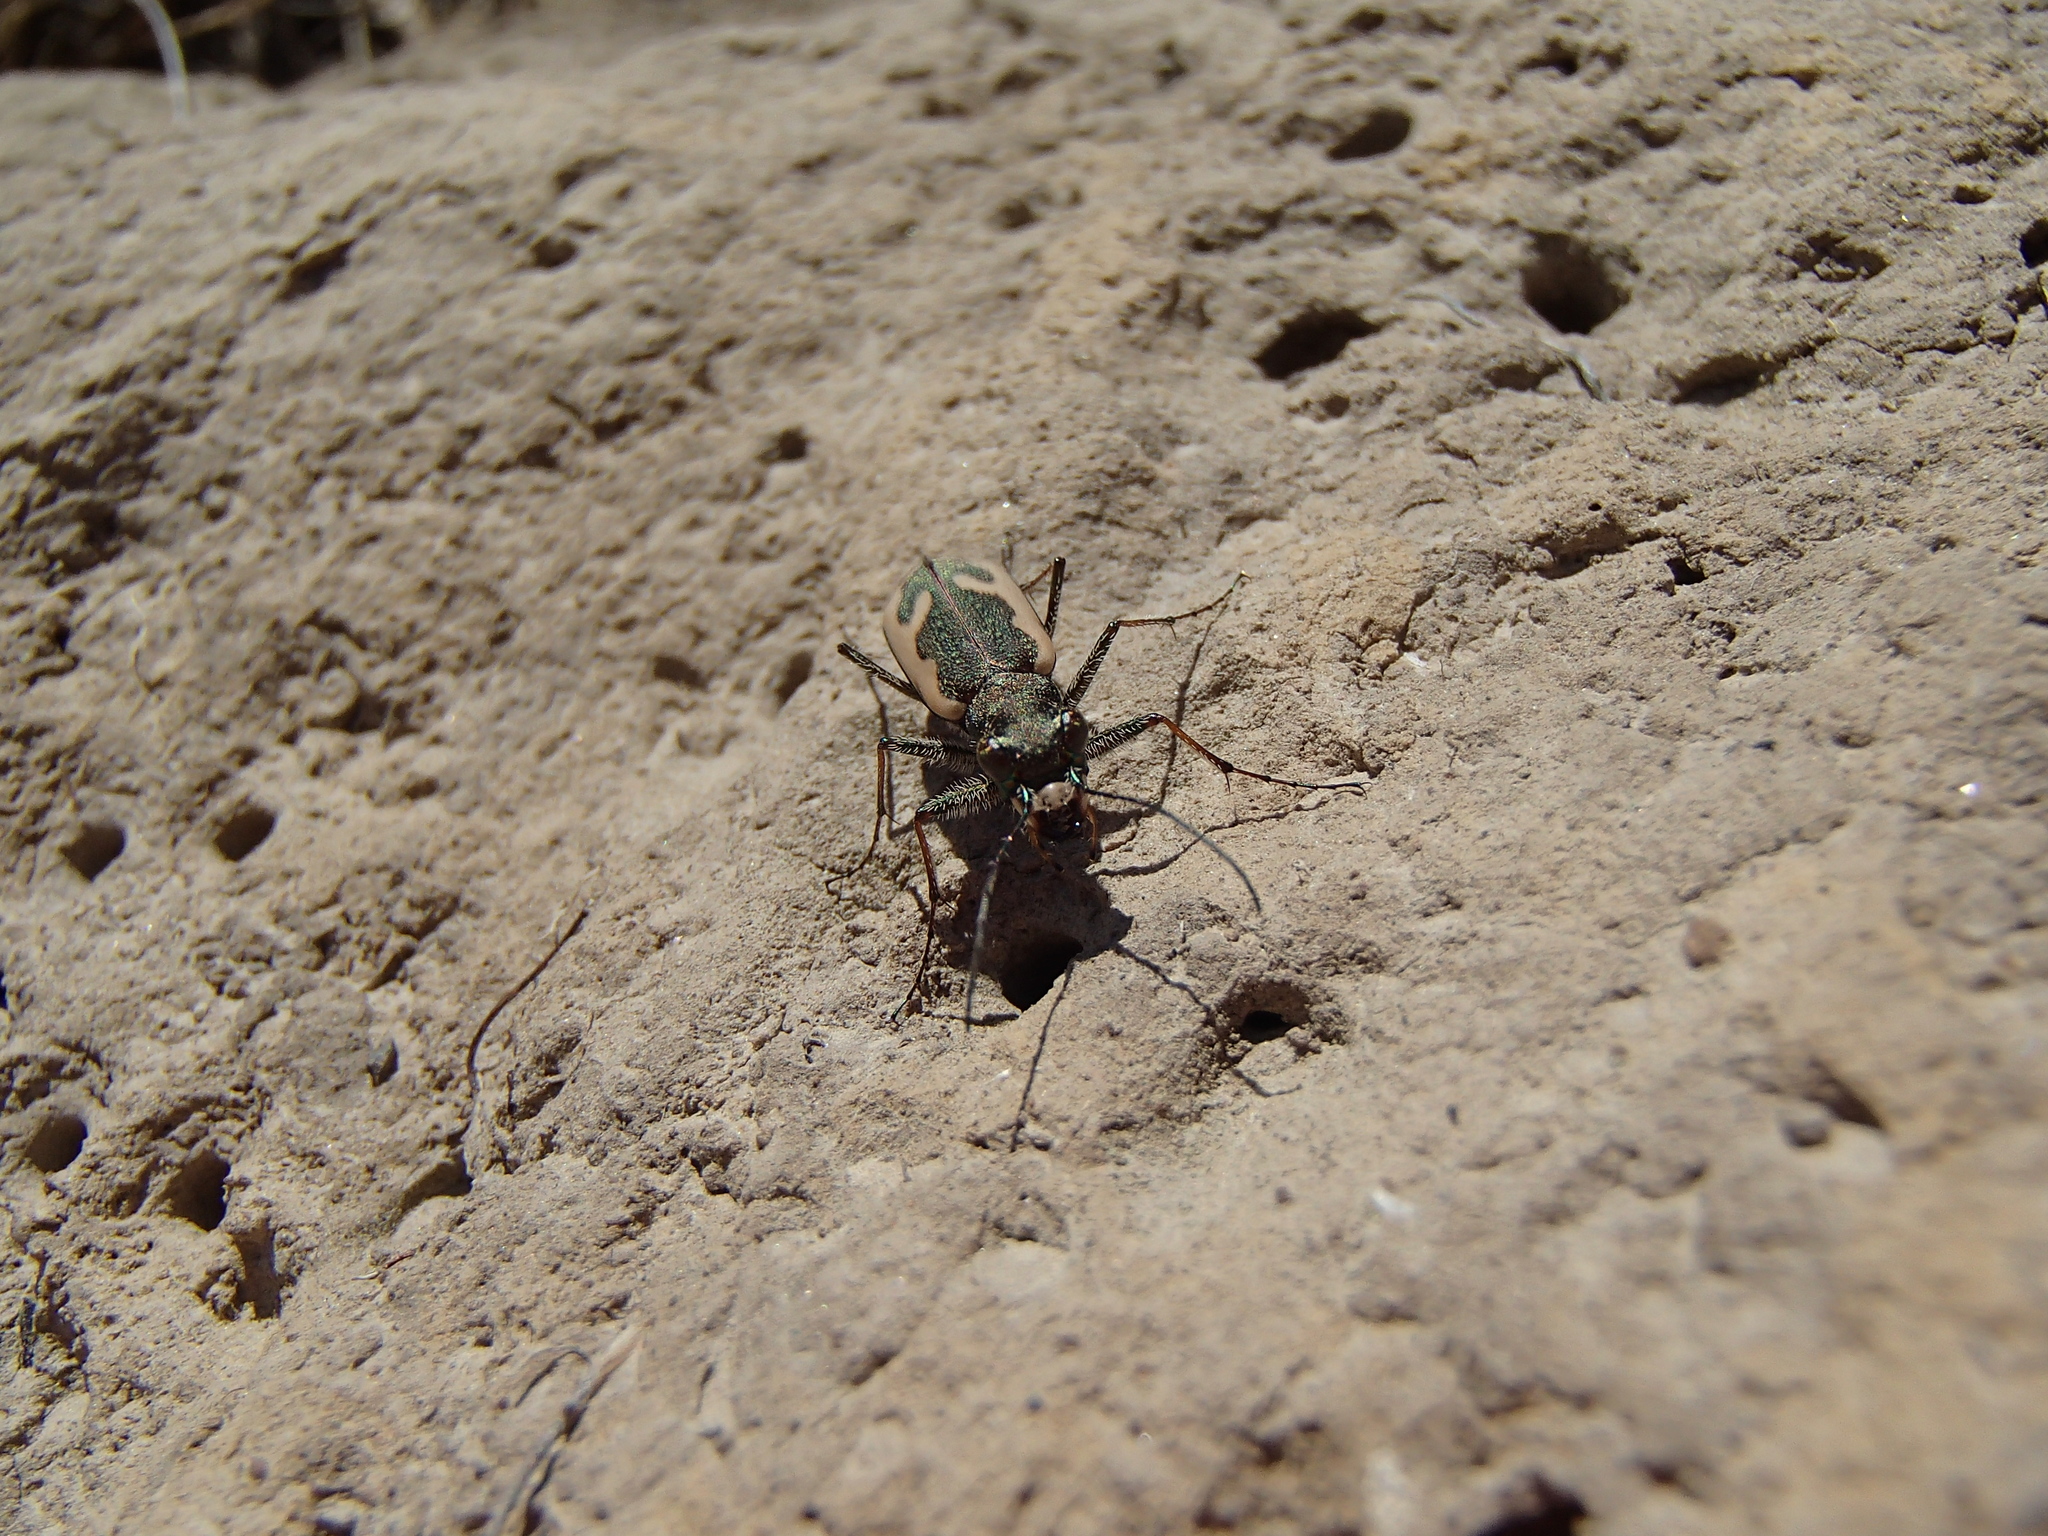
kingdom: Animalia
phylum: Arthropoda
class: Insecta
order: Coleoptera
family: Carabidae
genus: Neocicindela
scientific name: Neocicindela latecincta
